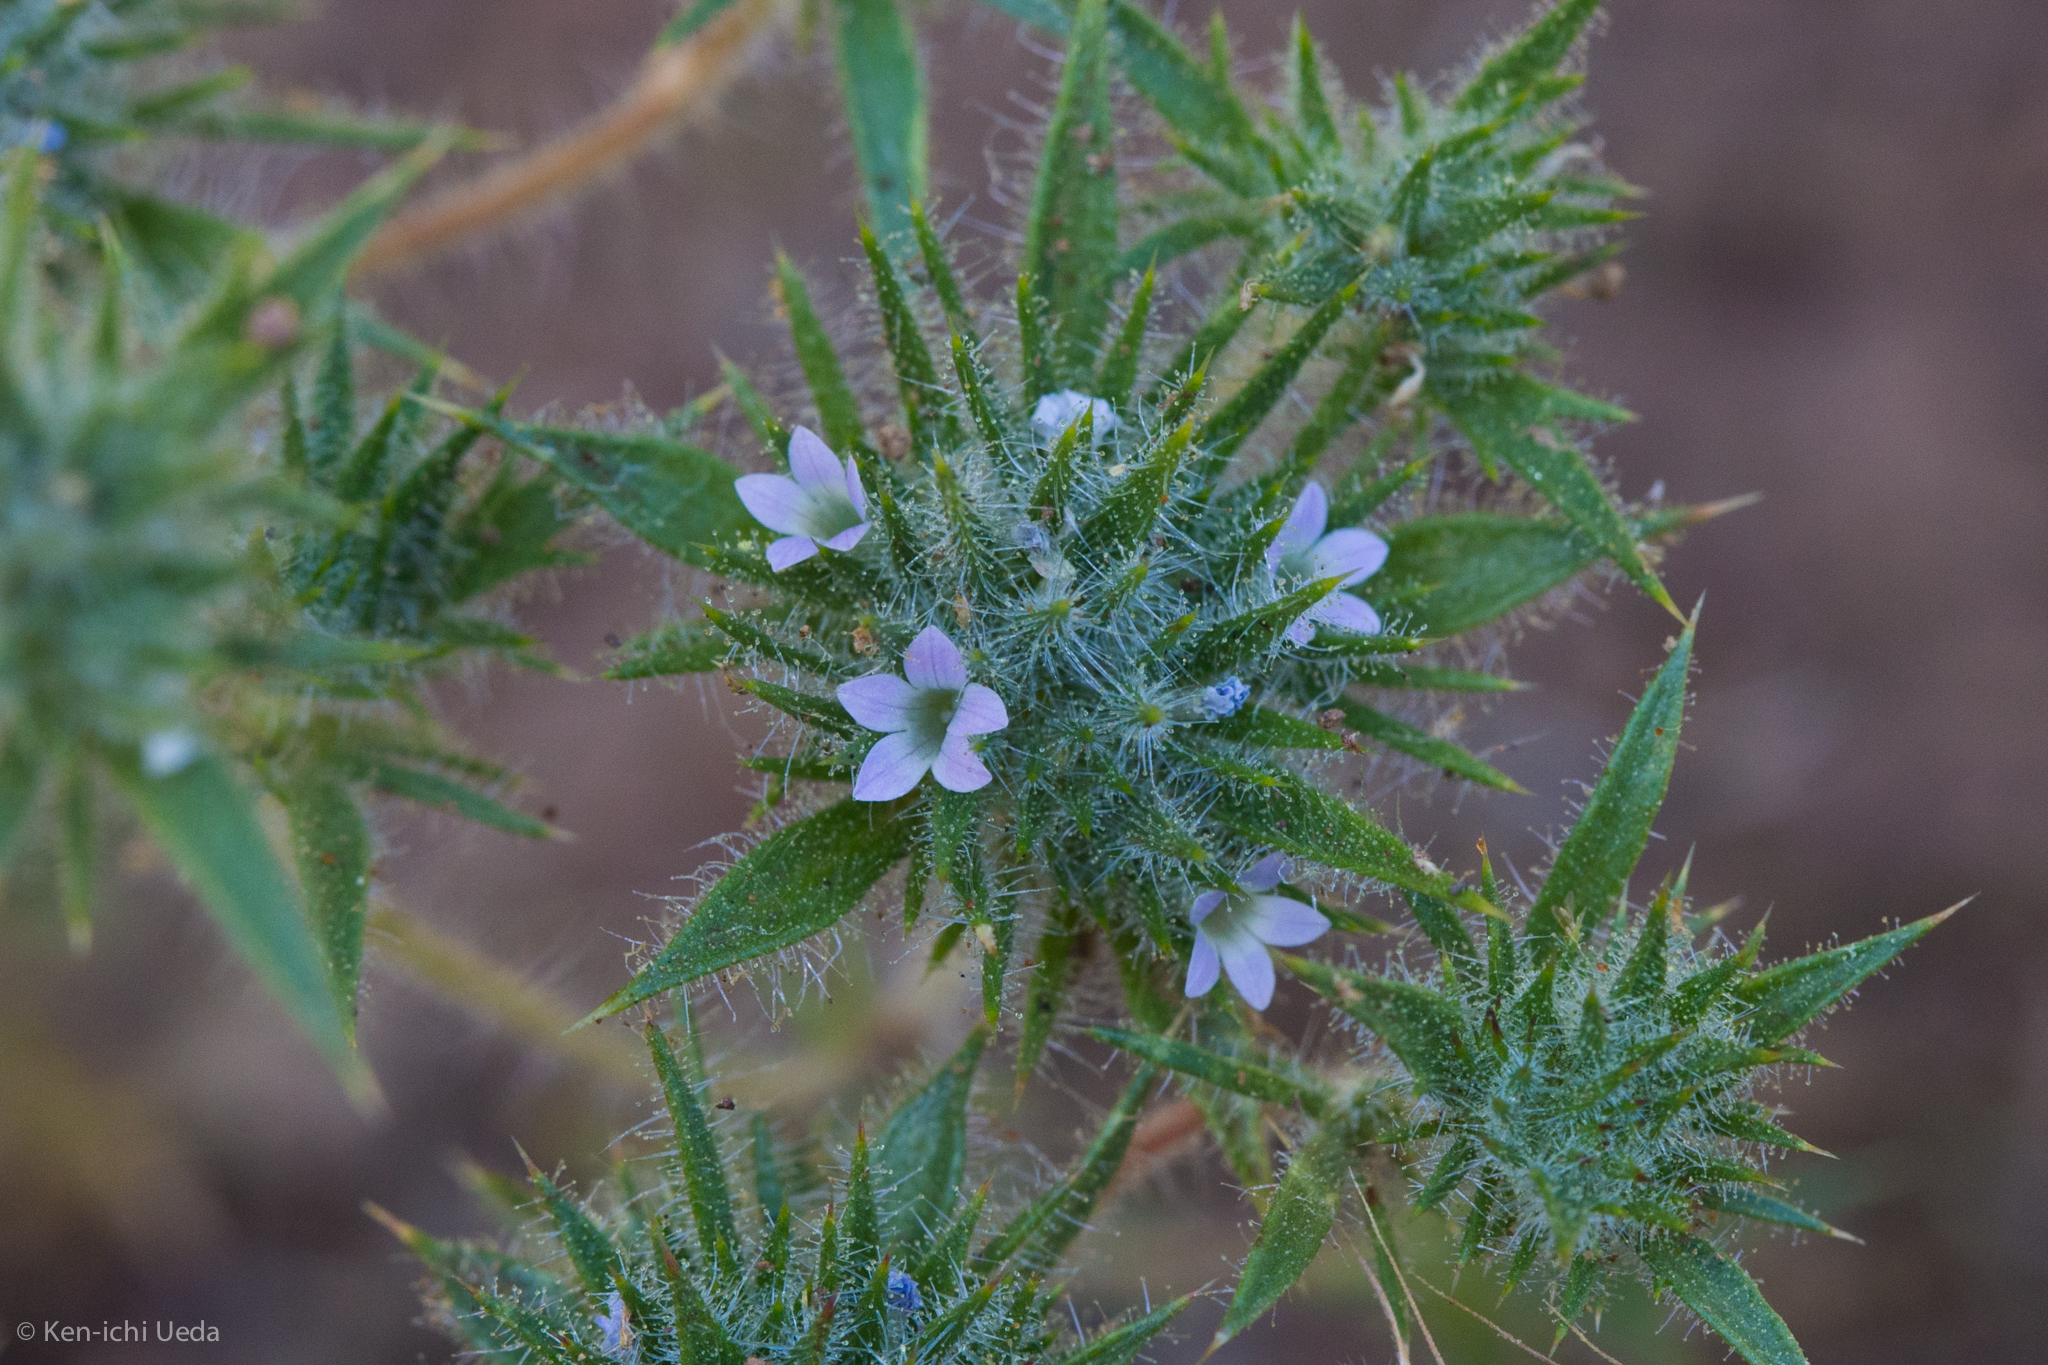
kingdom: Plantae
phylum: Tracheophyta
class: Magnoliopsida
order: Ericales
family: Polemoniaceae
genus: Navarretia
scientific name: Navarretia mellita
